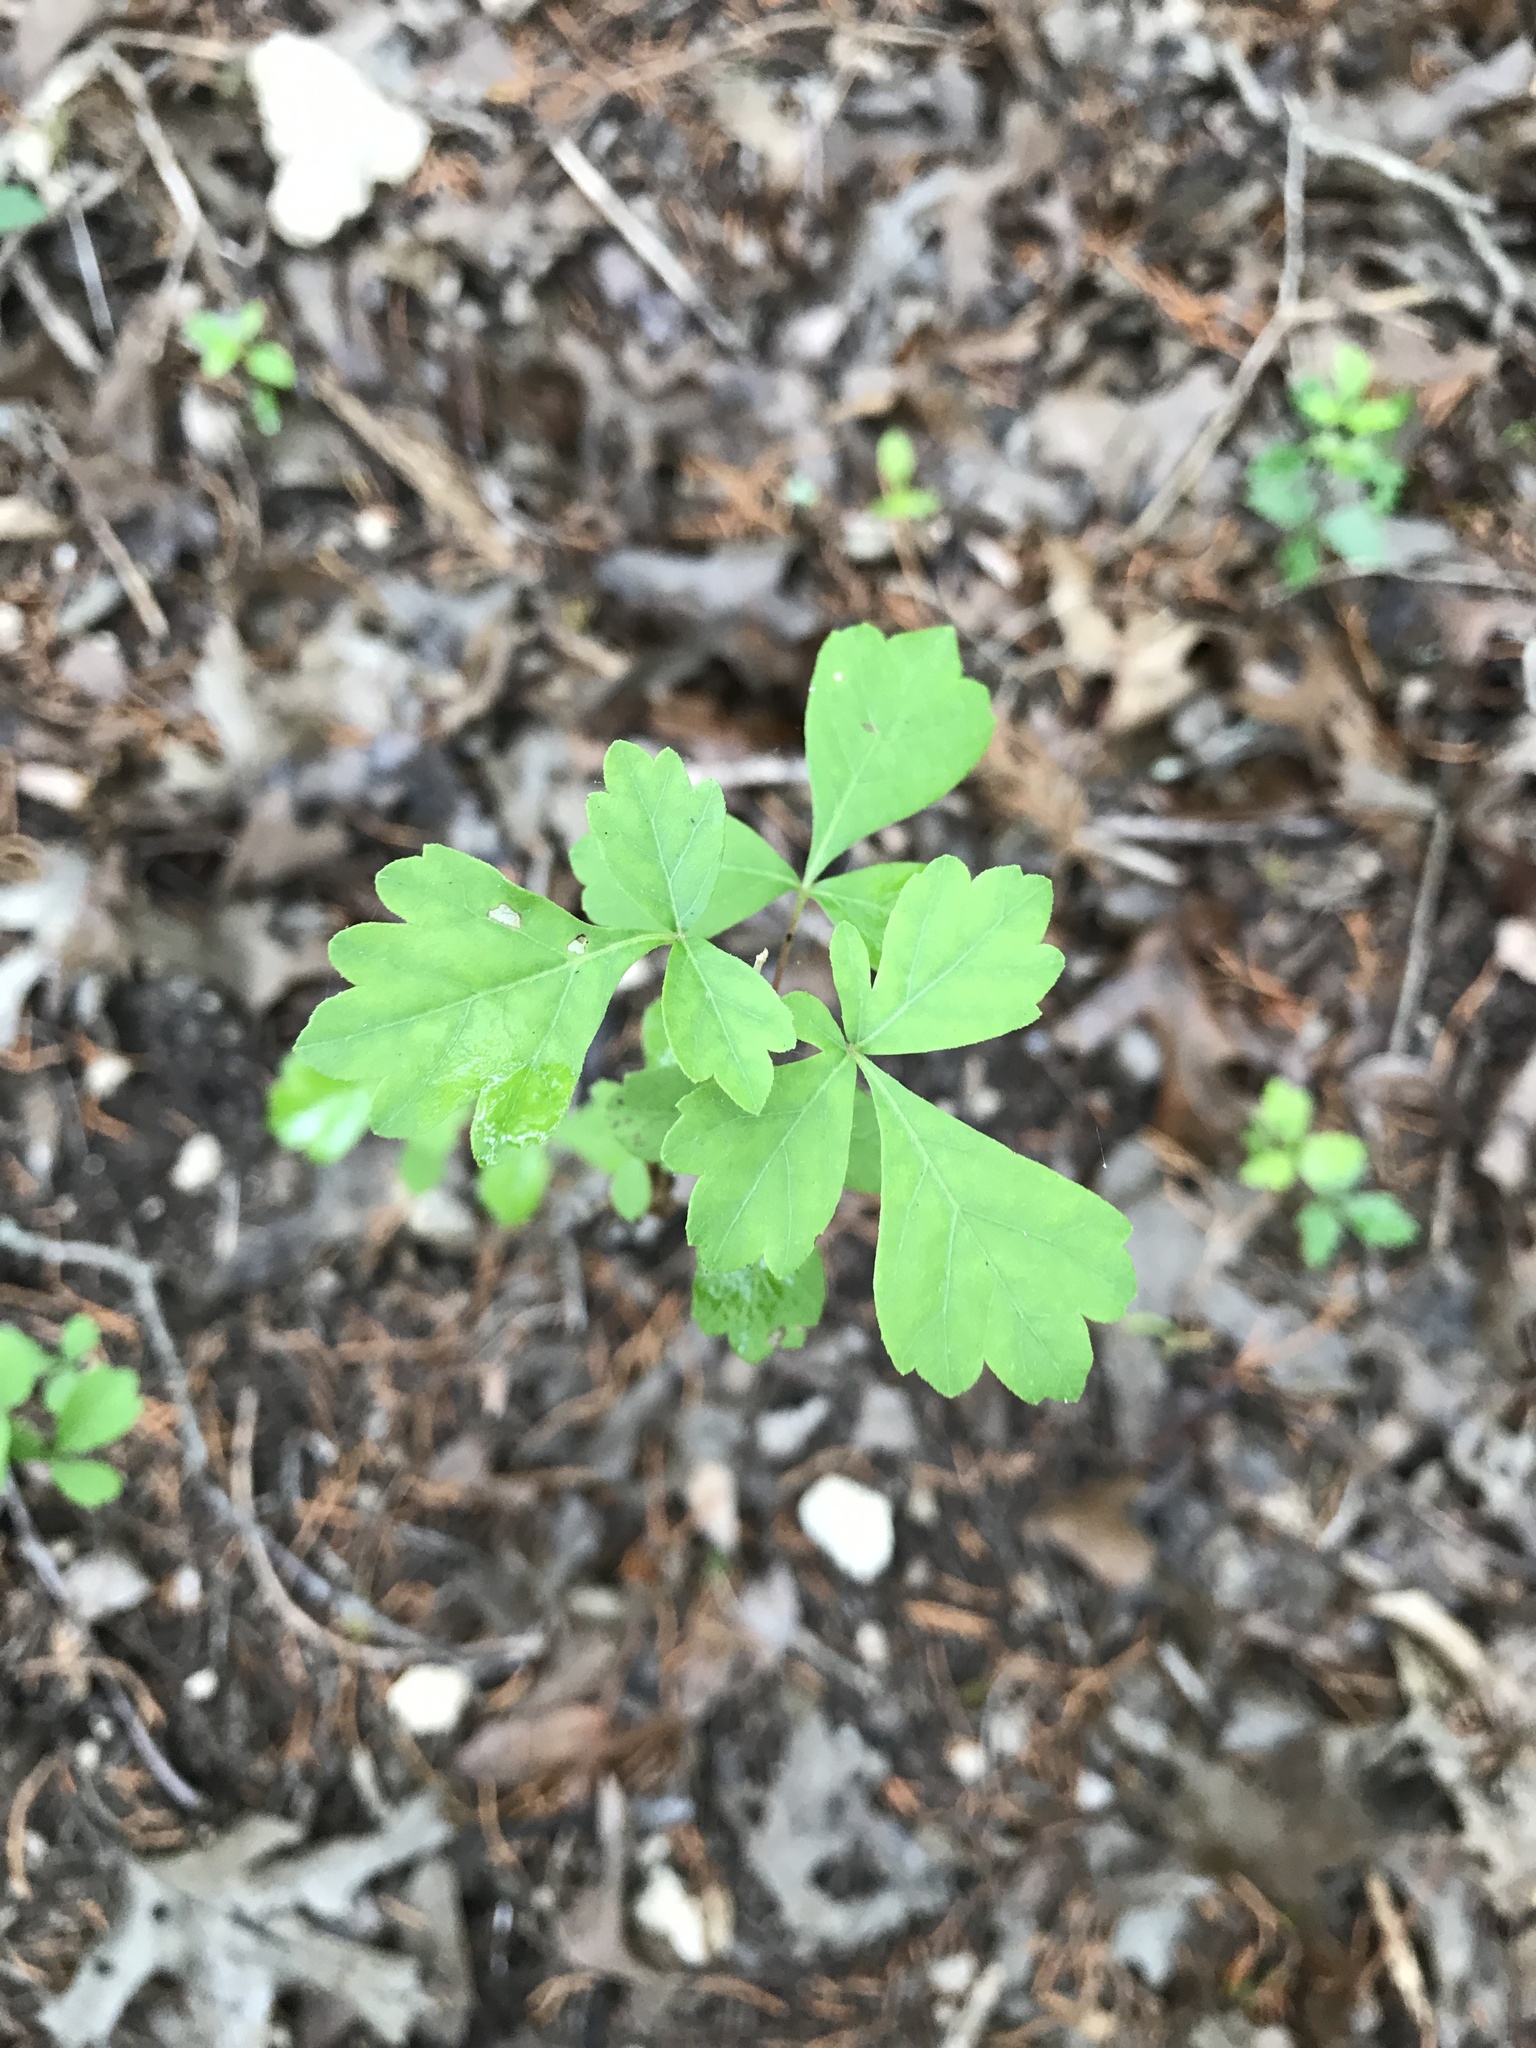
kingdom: Plantae
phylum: Tracheophyta
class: Magnoliopsida
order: Sapindales
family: Anacardiaceae
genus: Rhus
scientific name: Rhus aromatica
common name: Aromatic sumac
